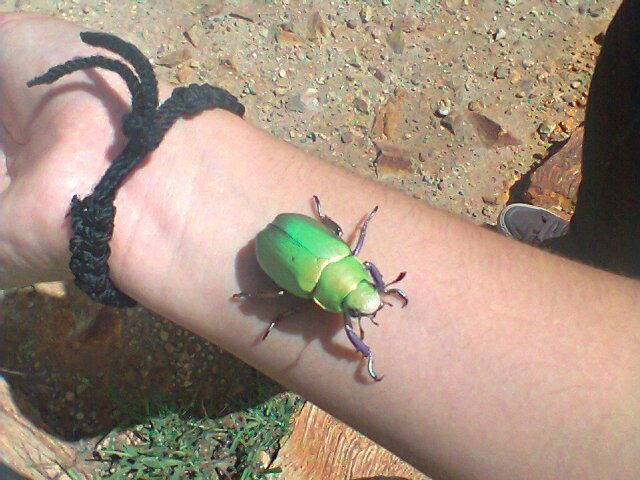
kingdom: Animalia
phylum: Arthropoda
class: Insecta
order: Coleoptera
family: Scarabaeidae
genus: Chrysina
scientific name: Chrysina beyeri
